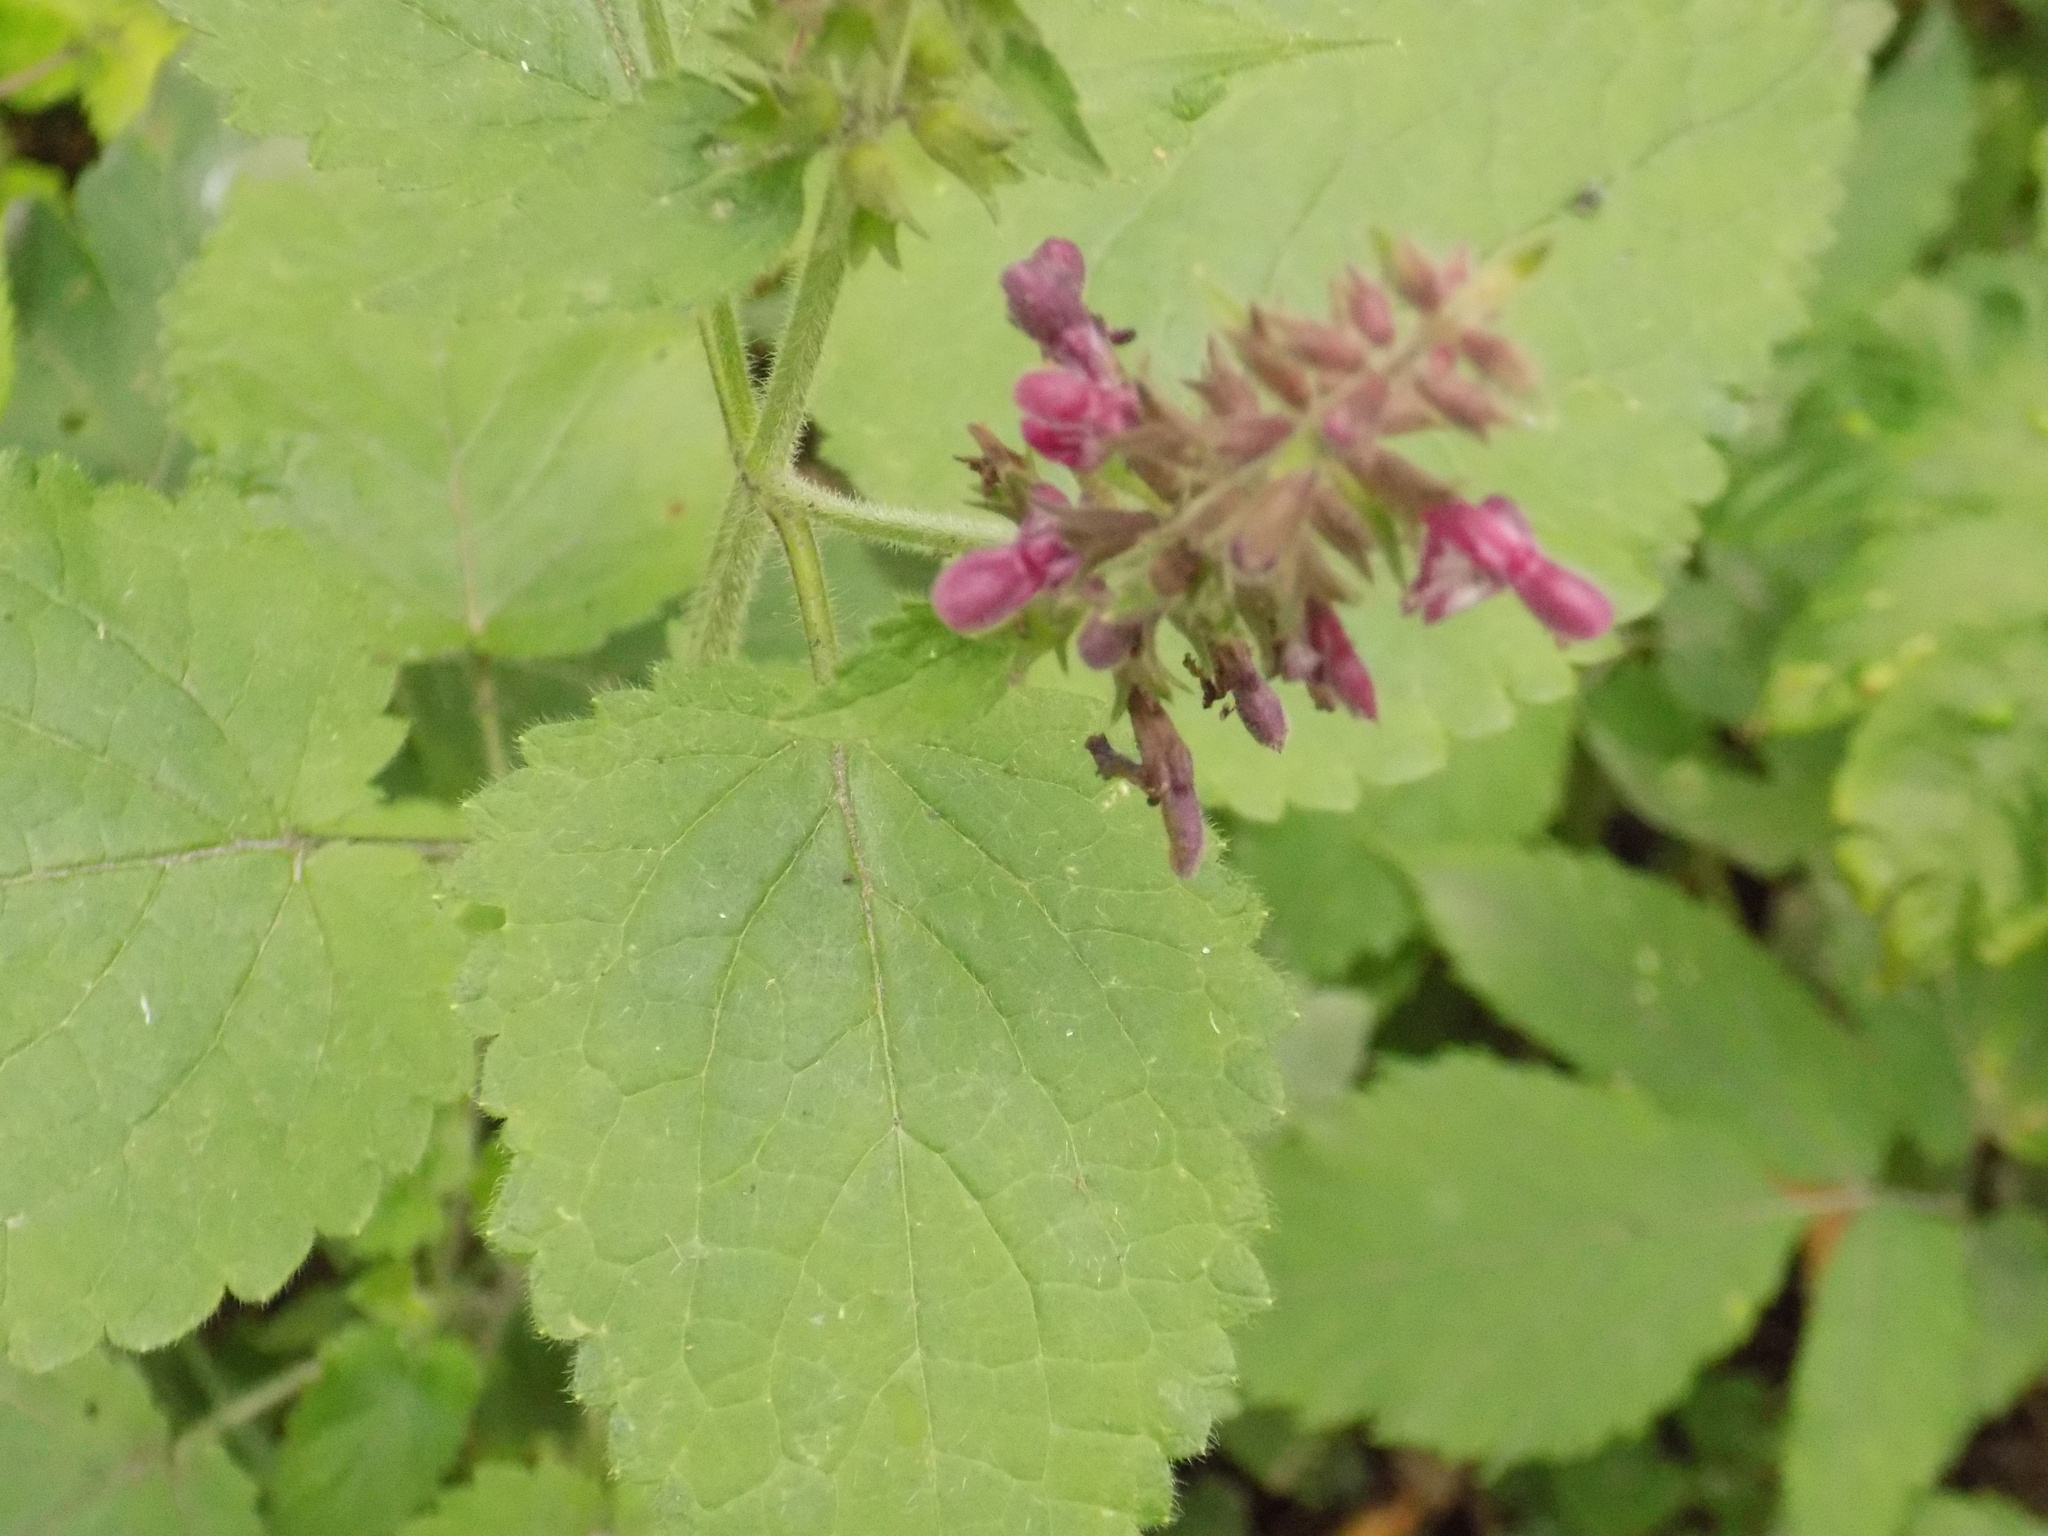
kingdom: Plantae
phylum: Tracheophyta
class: Magnoliopsida
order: Lamiales
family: Lamiaceae
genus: Stachys
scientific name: Stachys sylvatica
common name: Hedge woundwort
